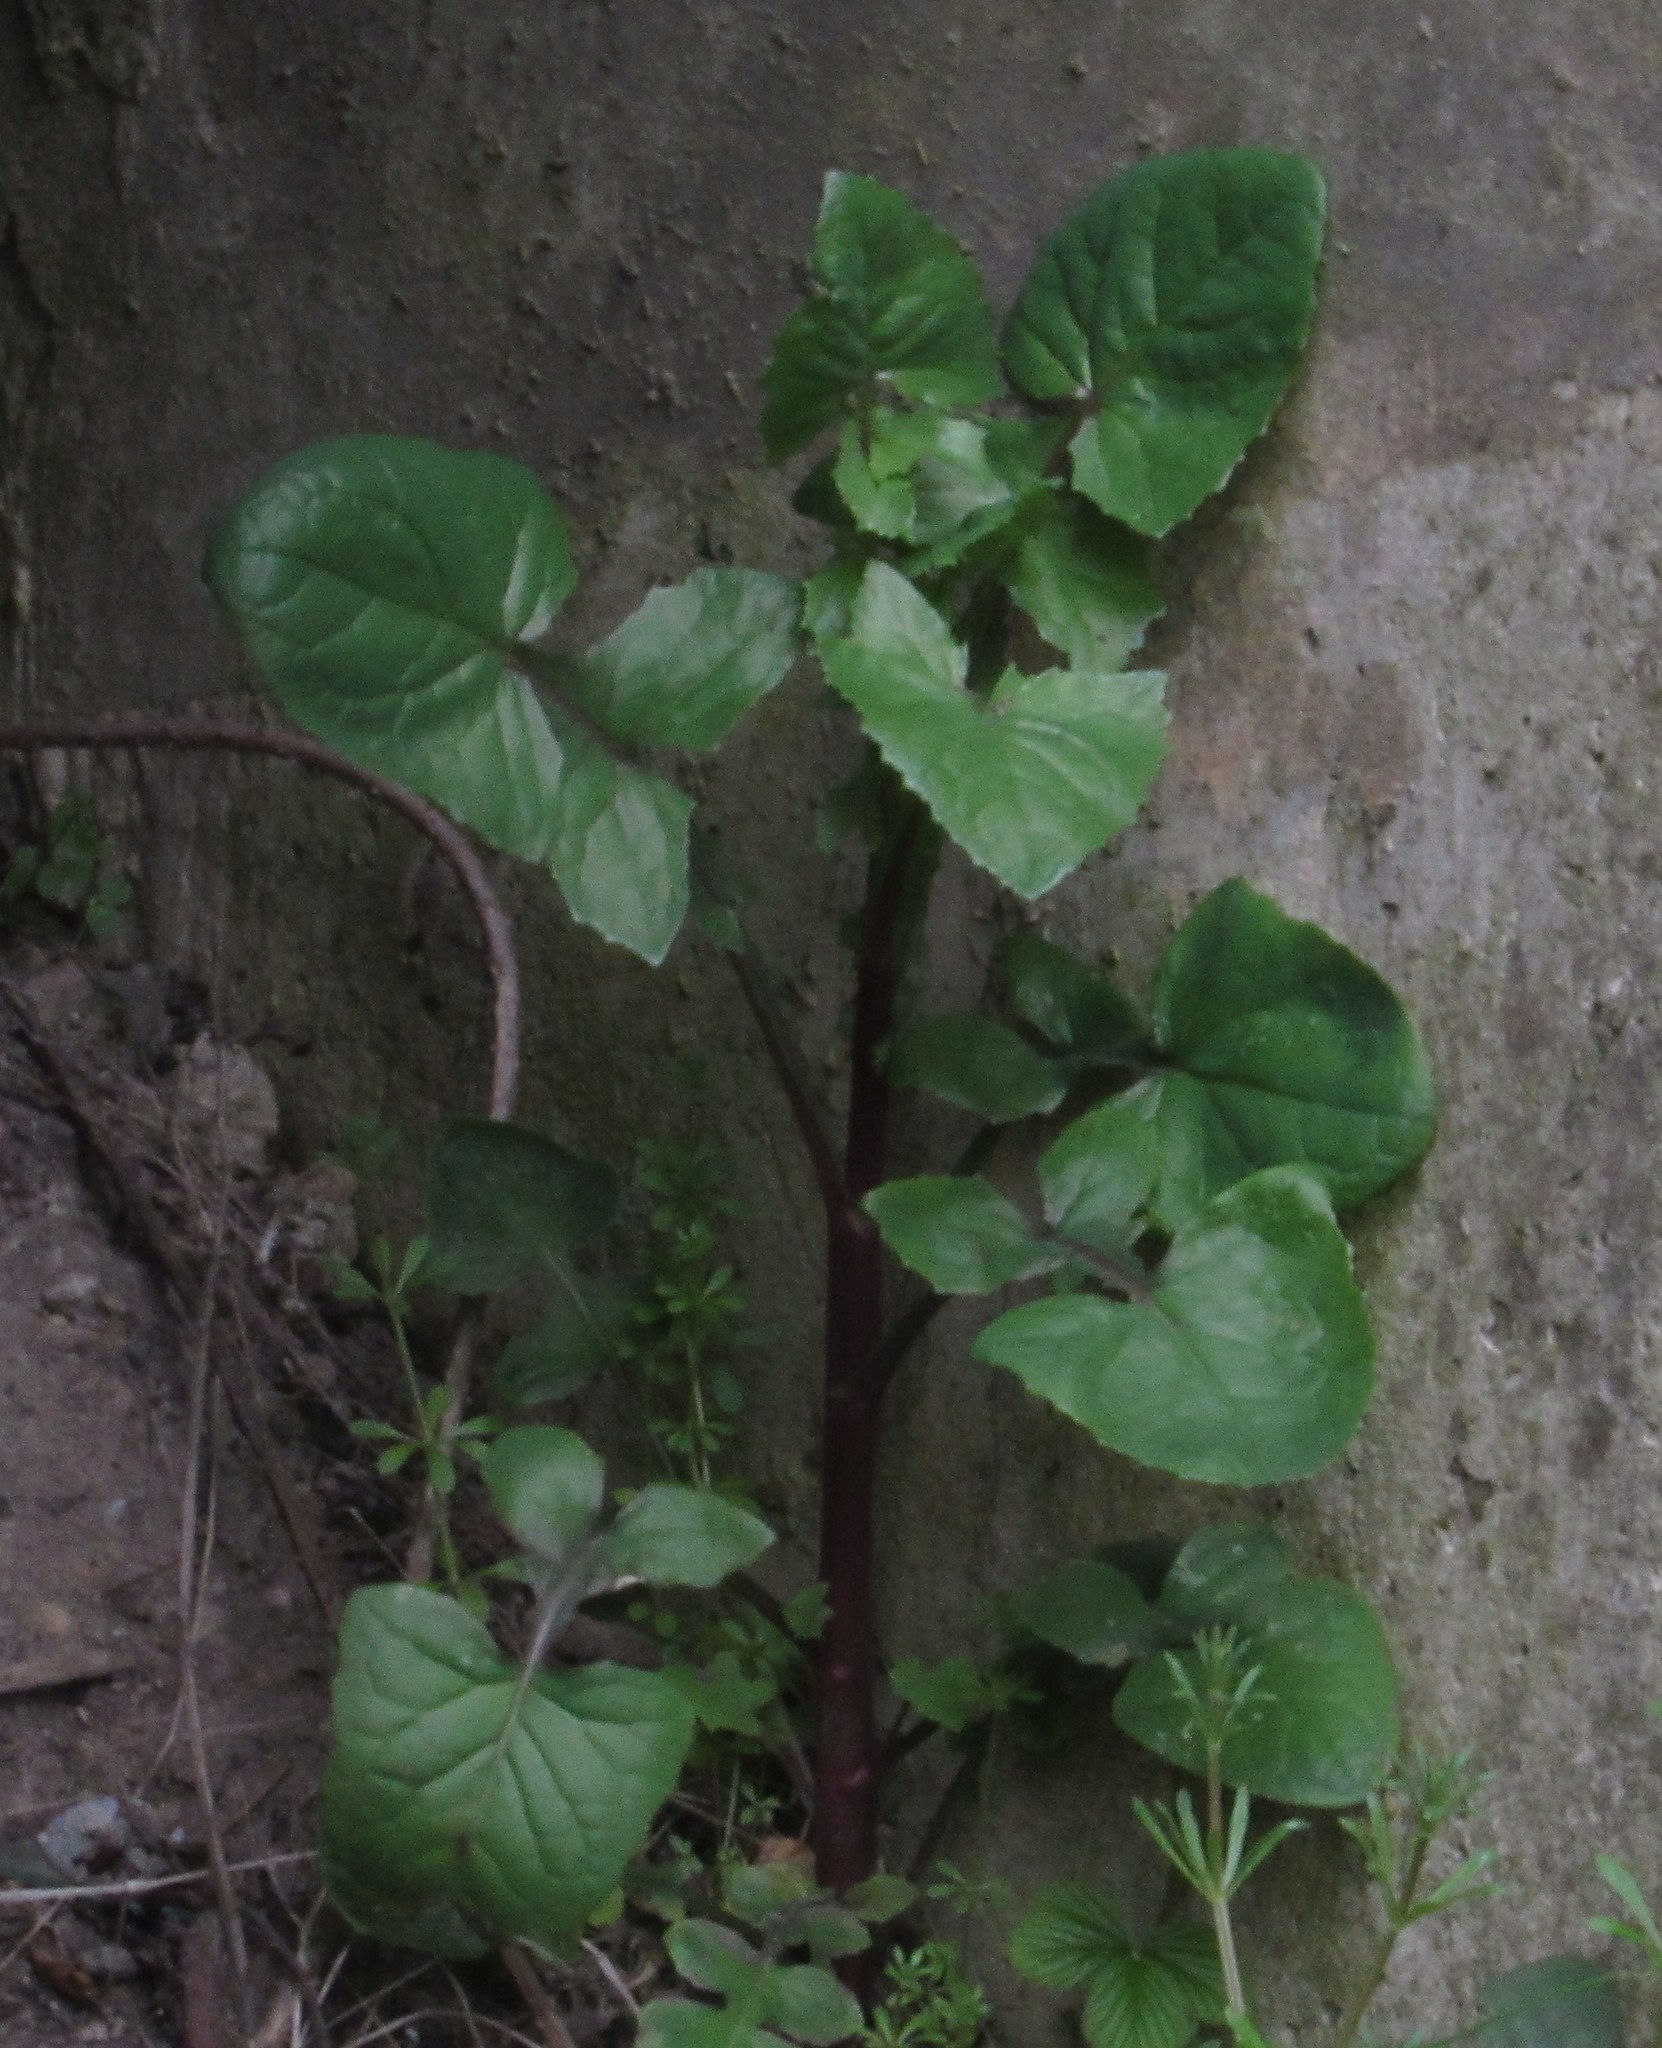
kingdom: Plantae
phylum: Tracheophyta
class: Magnoliopsida
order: Asterales
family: Asteraceae
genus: Sonchus
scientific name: Sonchus oleraceus
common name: Common sowthistle
